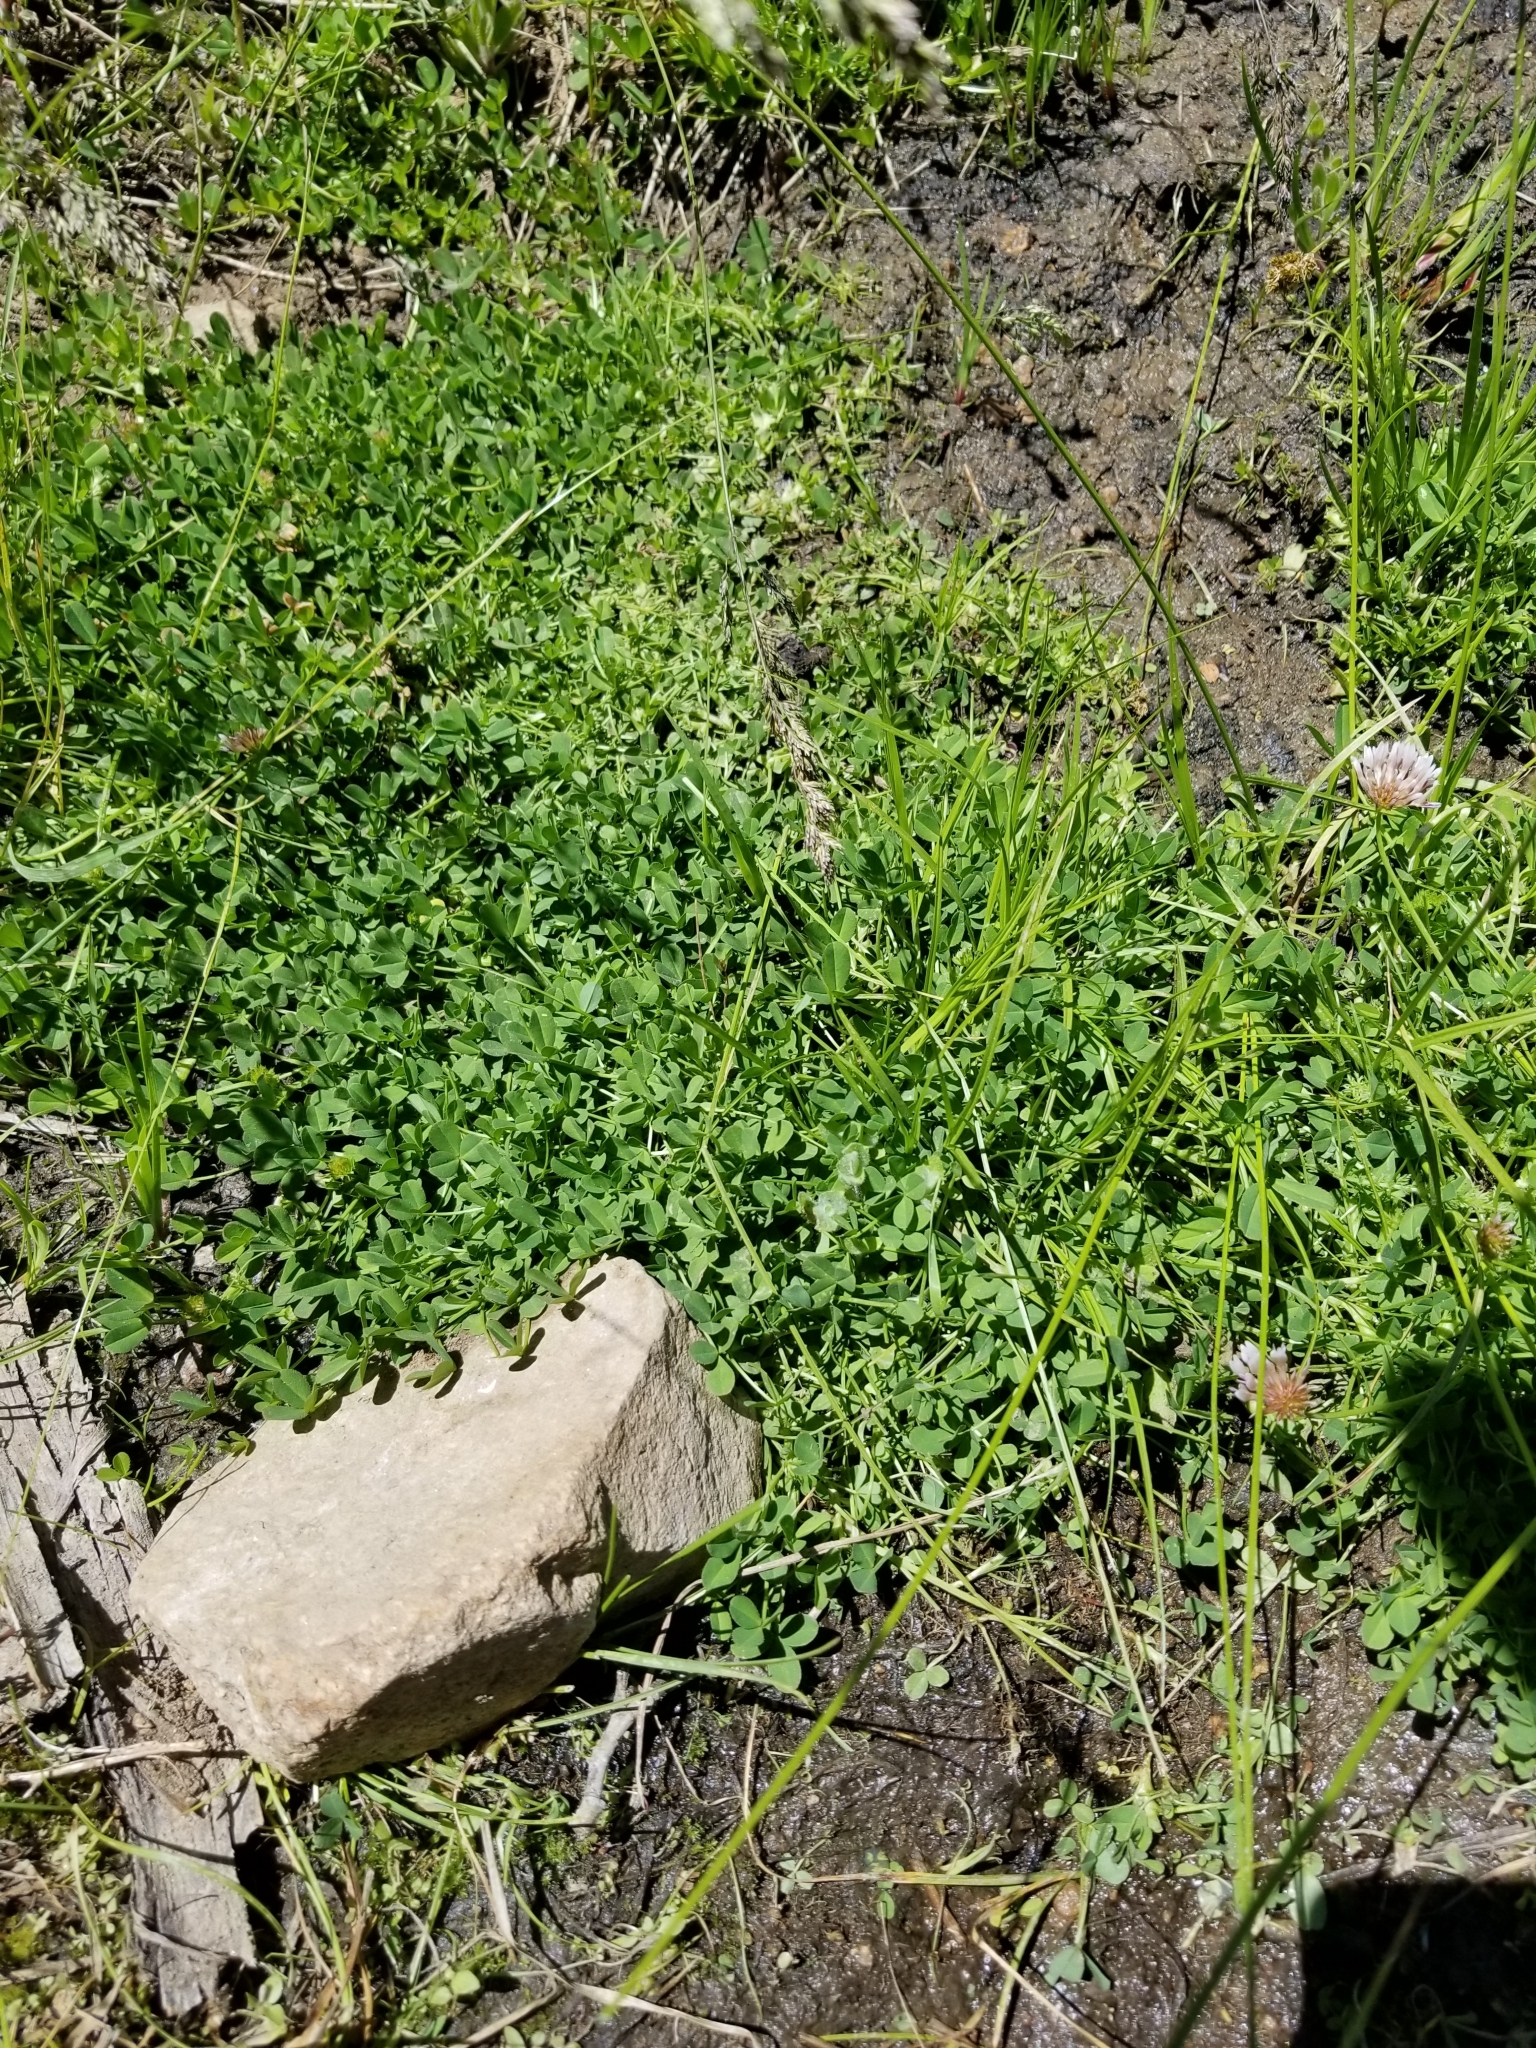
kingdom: Plantae
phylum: Tracheophyta
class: Magnoliopsida
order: Fabales
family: Fabaceae
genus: Trifolium
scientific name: Trifolium wormskioldii
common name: Springbank clover
